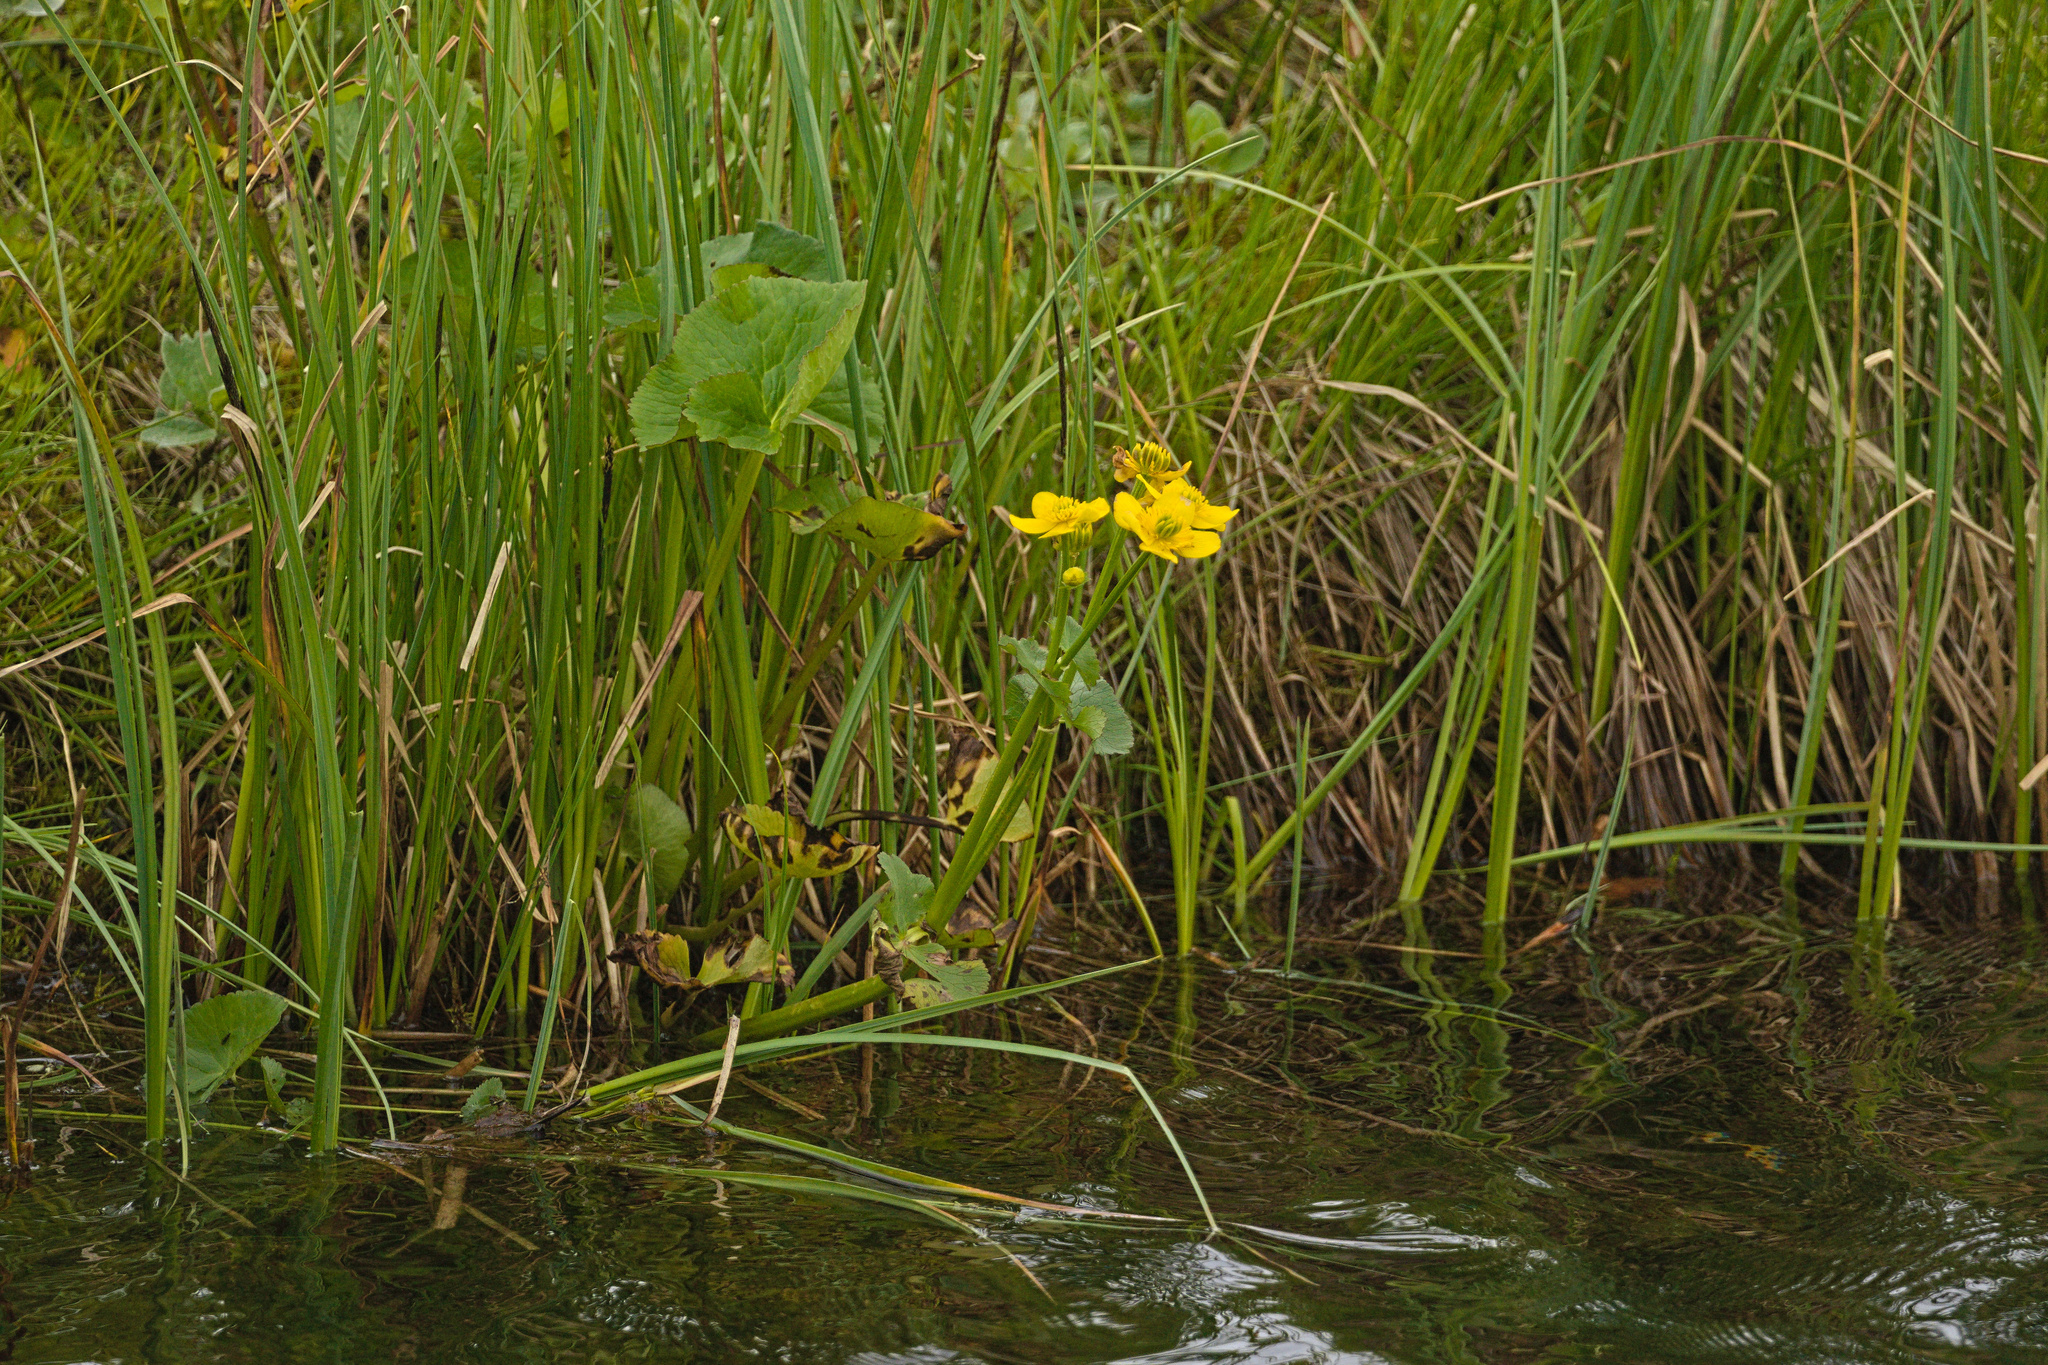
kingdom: Plantae
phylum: Tracheophyta
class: Magnoliopsida
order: Ranunculales
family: Ranunculaceae
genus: Caltha
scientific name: Caltha palustris
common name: Marsh marigold
